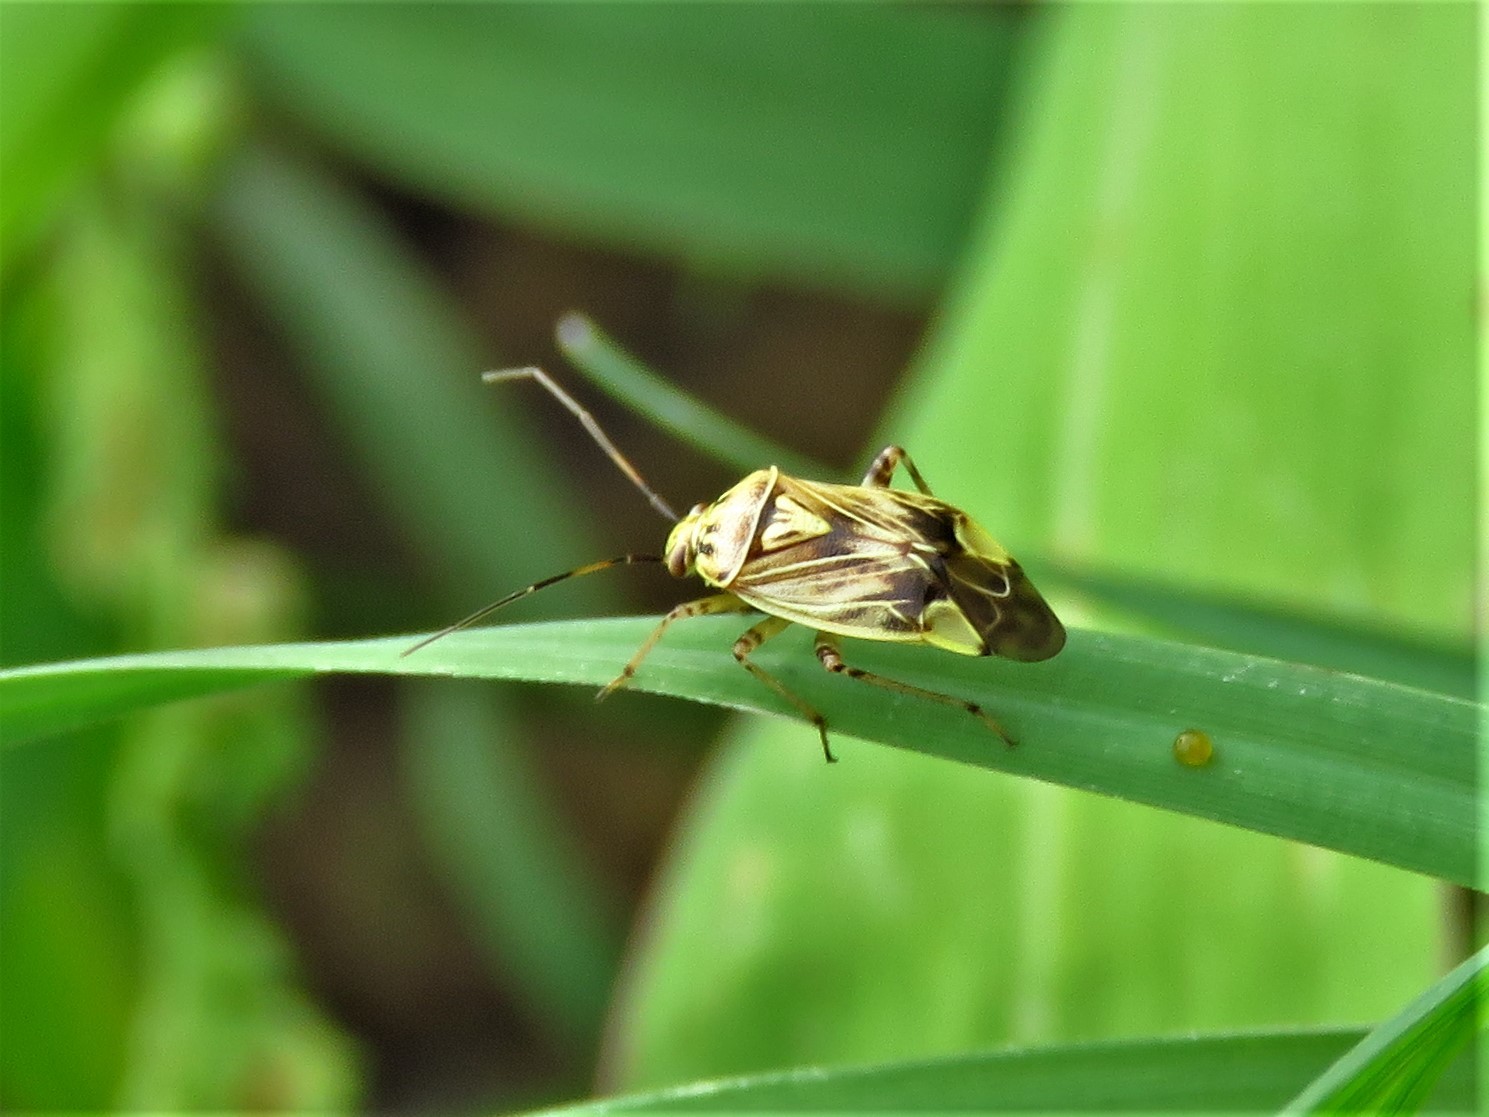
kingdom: Animalia
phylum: Arthropoda
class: Insecta
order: Hemiptera
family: Miridae
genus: Lygus
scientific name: Lygus lineolaris
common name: North american tarnished plant bug
